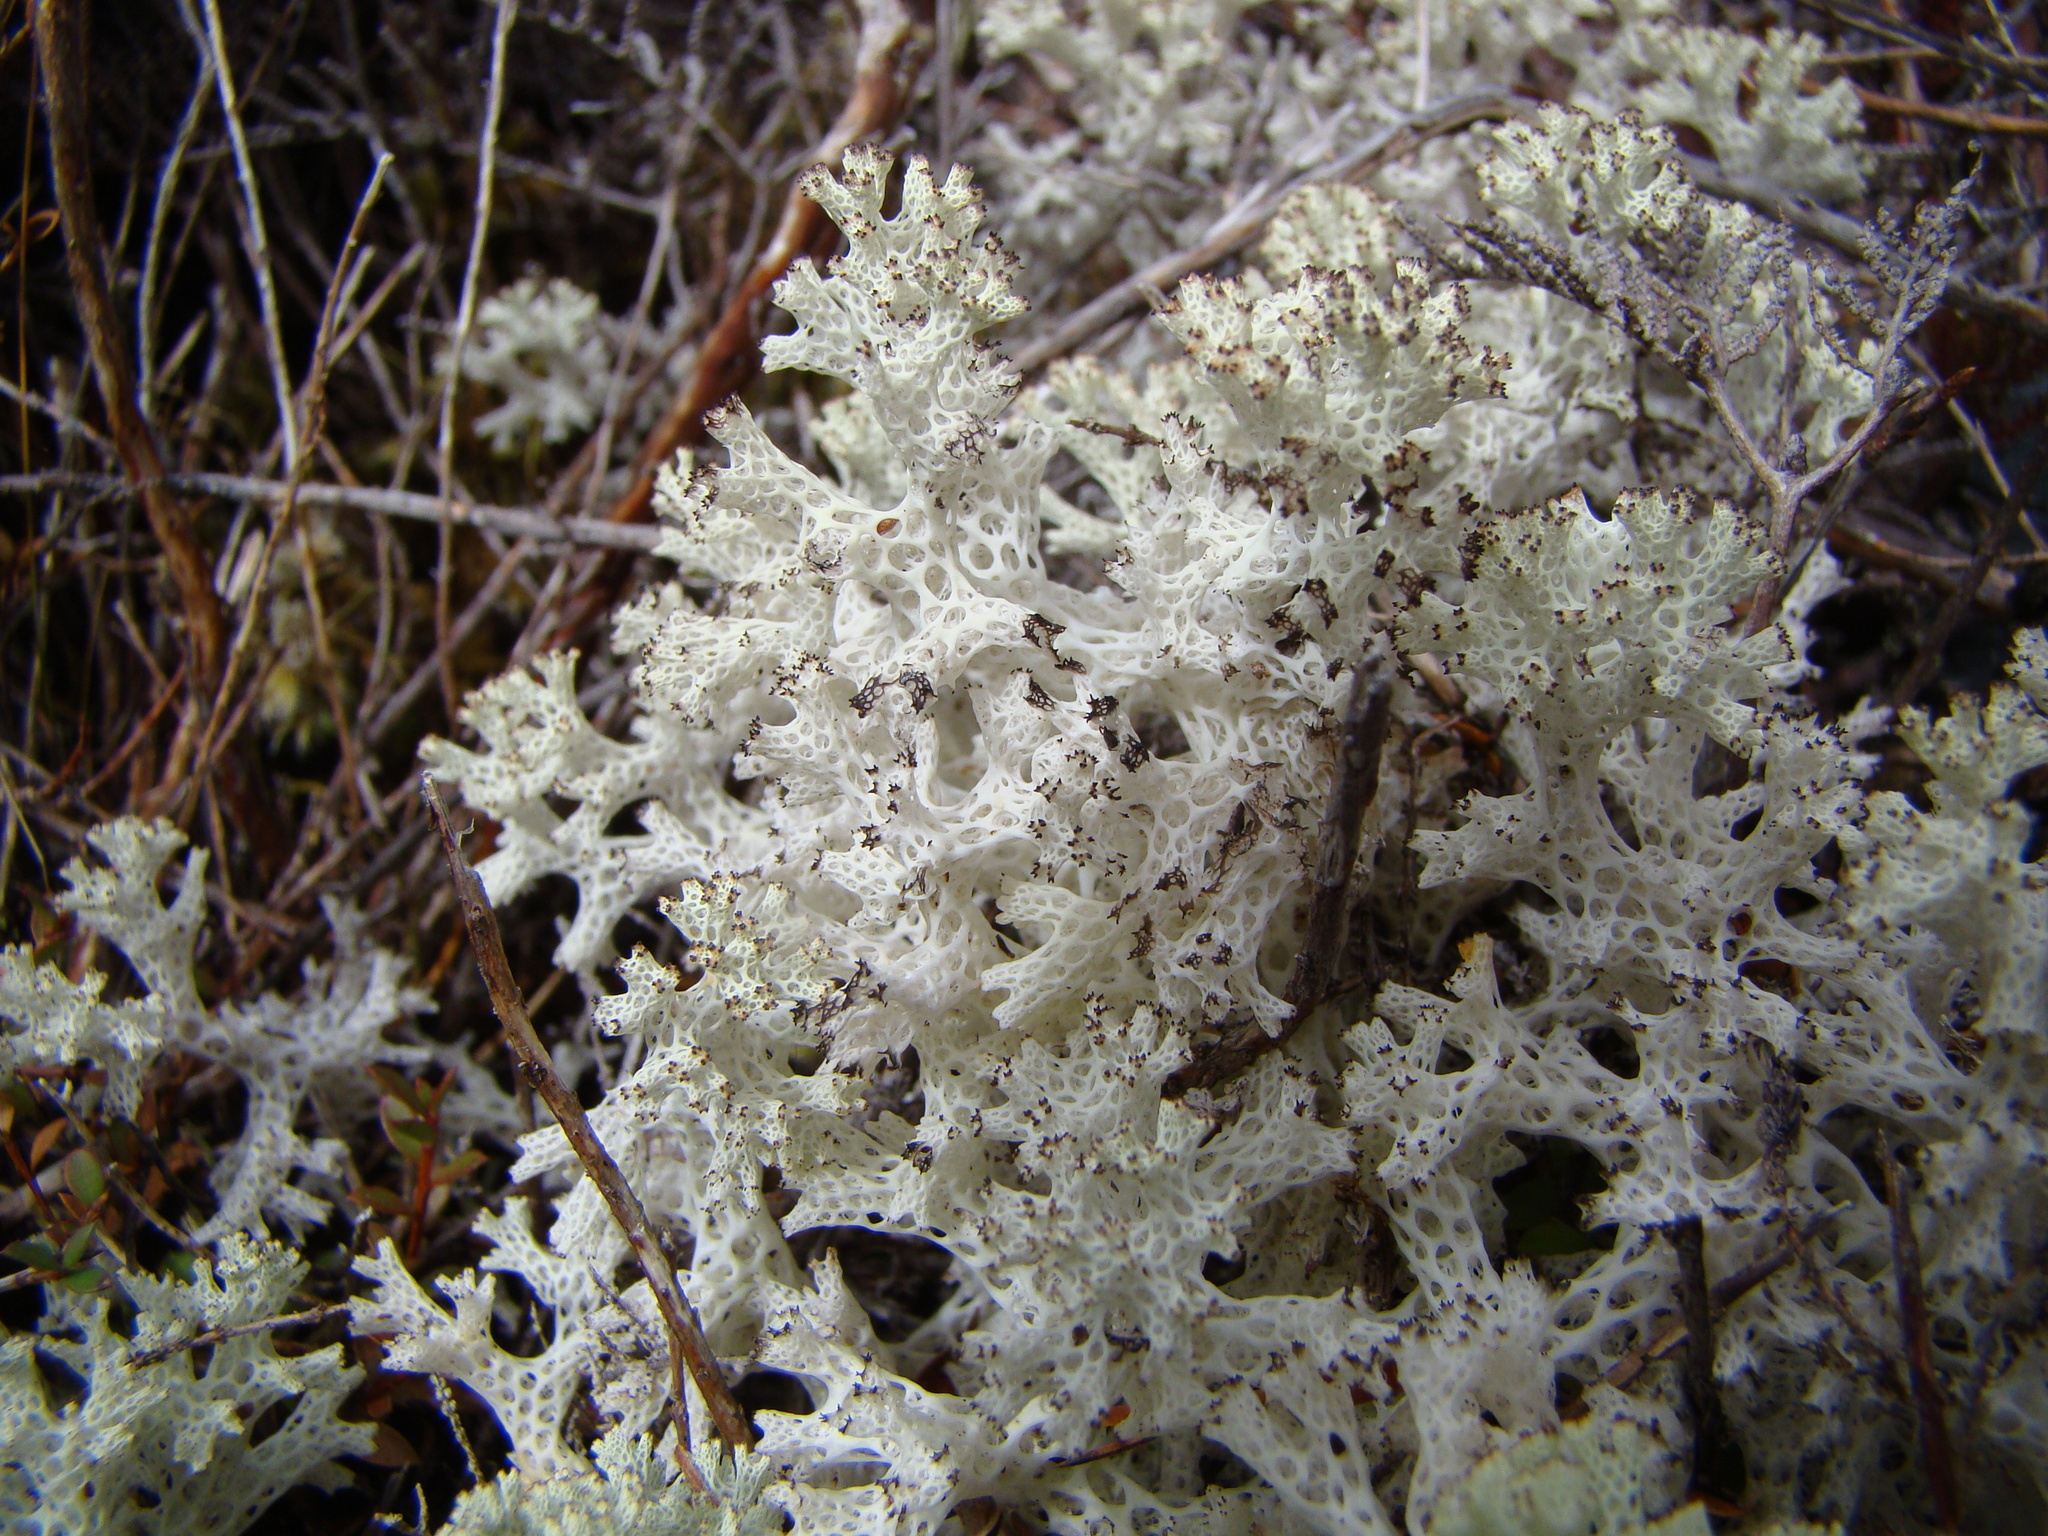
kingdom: Fungi
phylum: Ascomycota
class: Lecanoromycetes
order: Lecanorales
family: Cladoniaceae
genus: Pulchrocladia
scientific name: Pulchrocladia retipora
